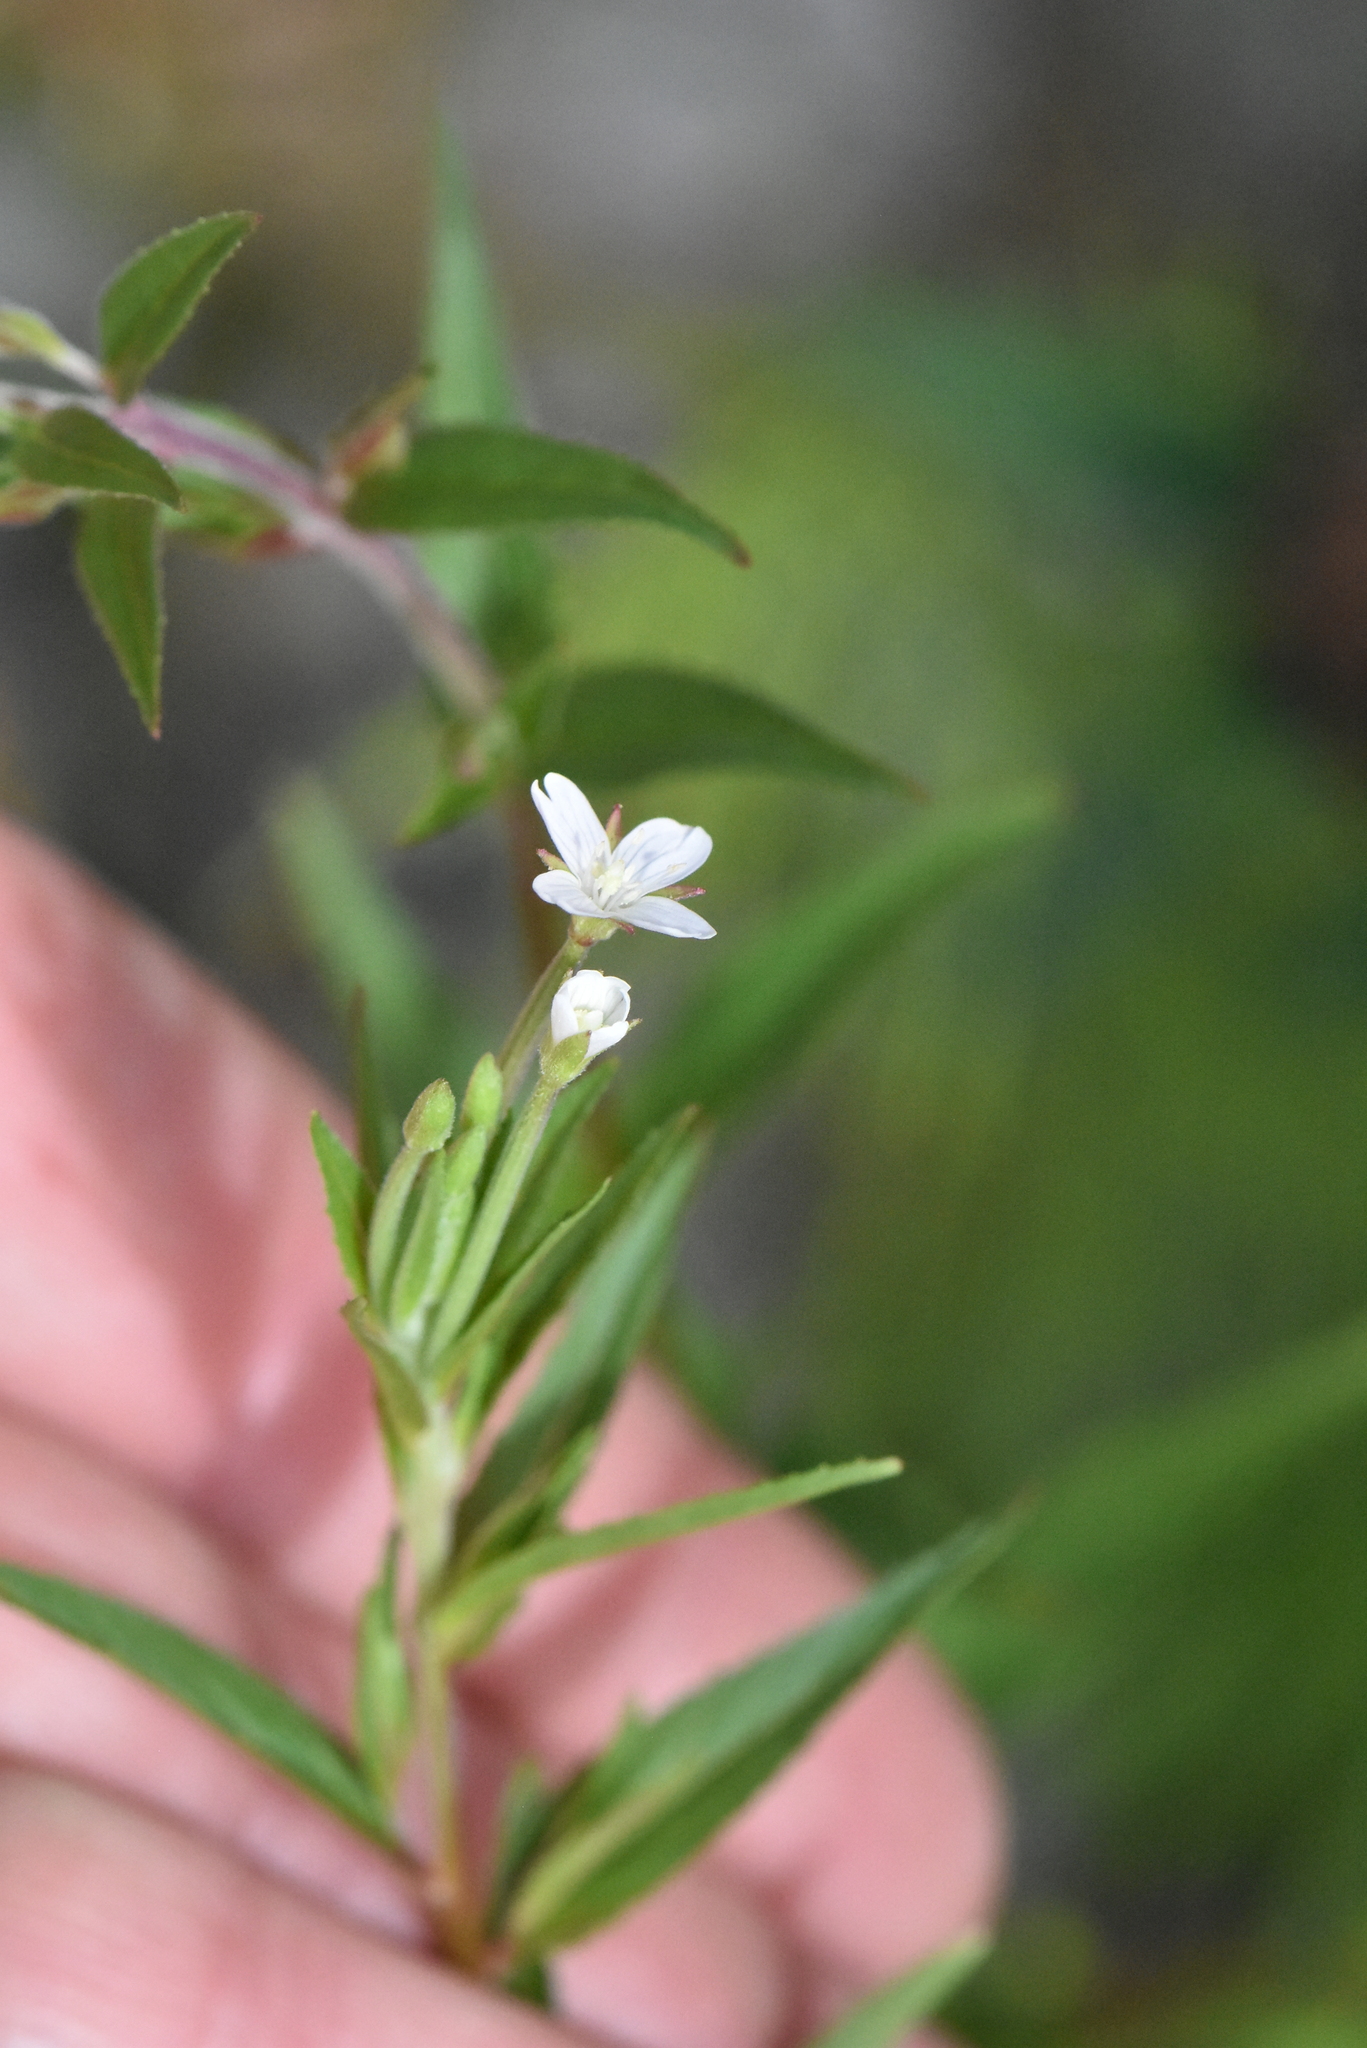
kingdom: Plantae
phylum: Tracheophyta
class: Magnoliopsida
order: Myrtales
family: Onagraceae
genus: Epilobium
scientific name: Epilobium pseudorubescens
